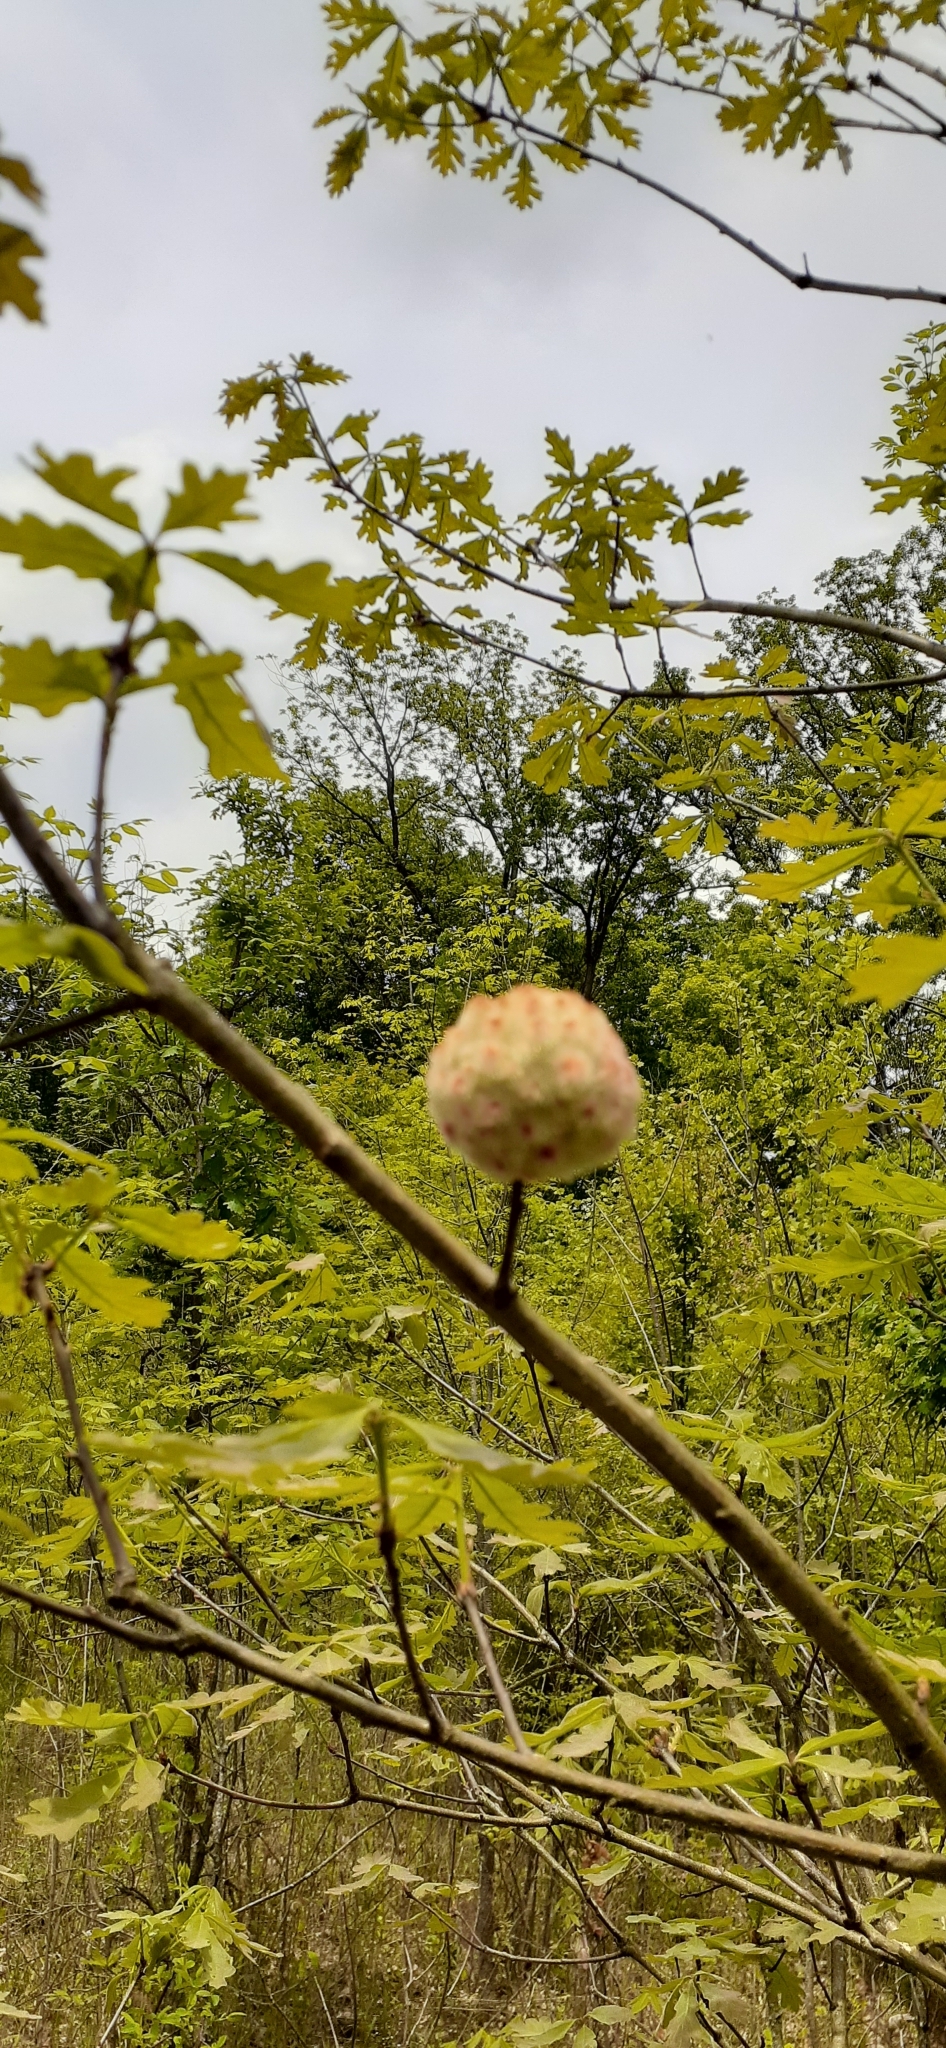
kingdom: Animalia
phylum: Arthropoda
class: Insecta
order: Hymenoptera
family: Cynipidae
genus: Callirhytis
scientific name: Callirhytis
